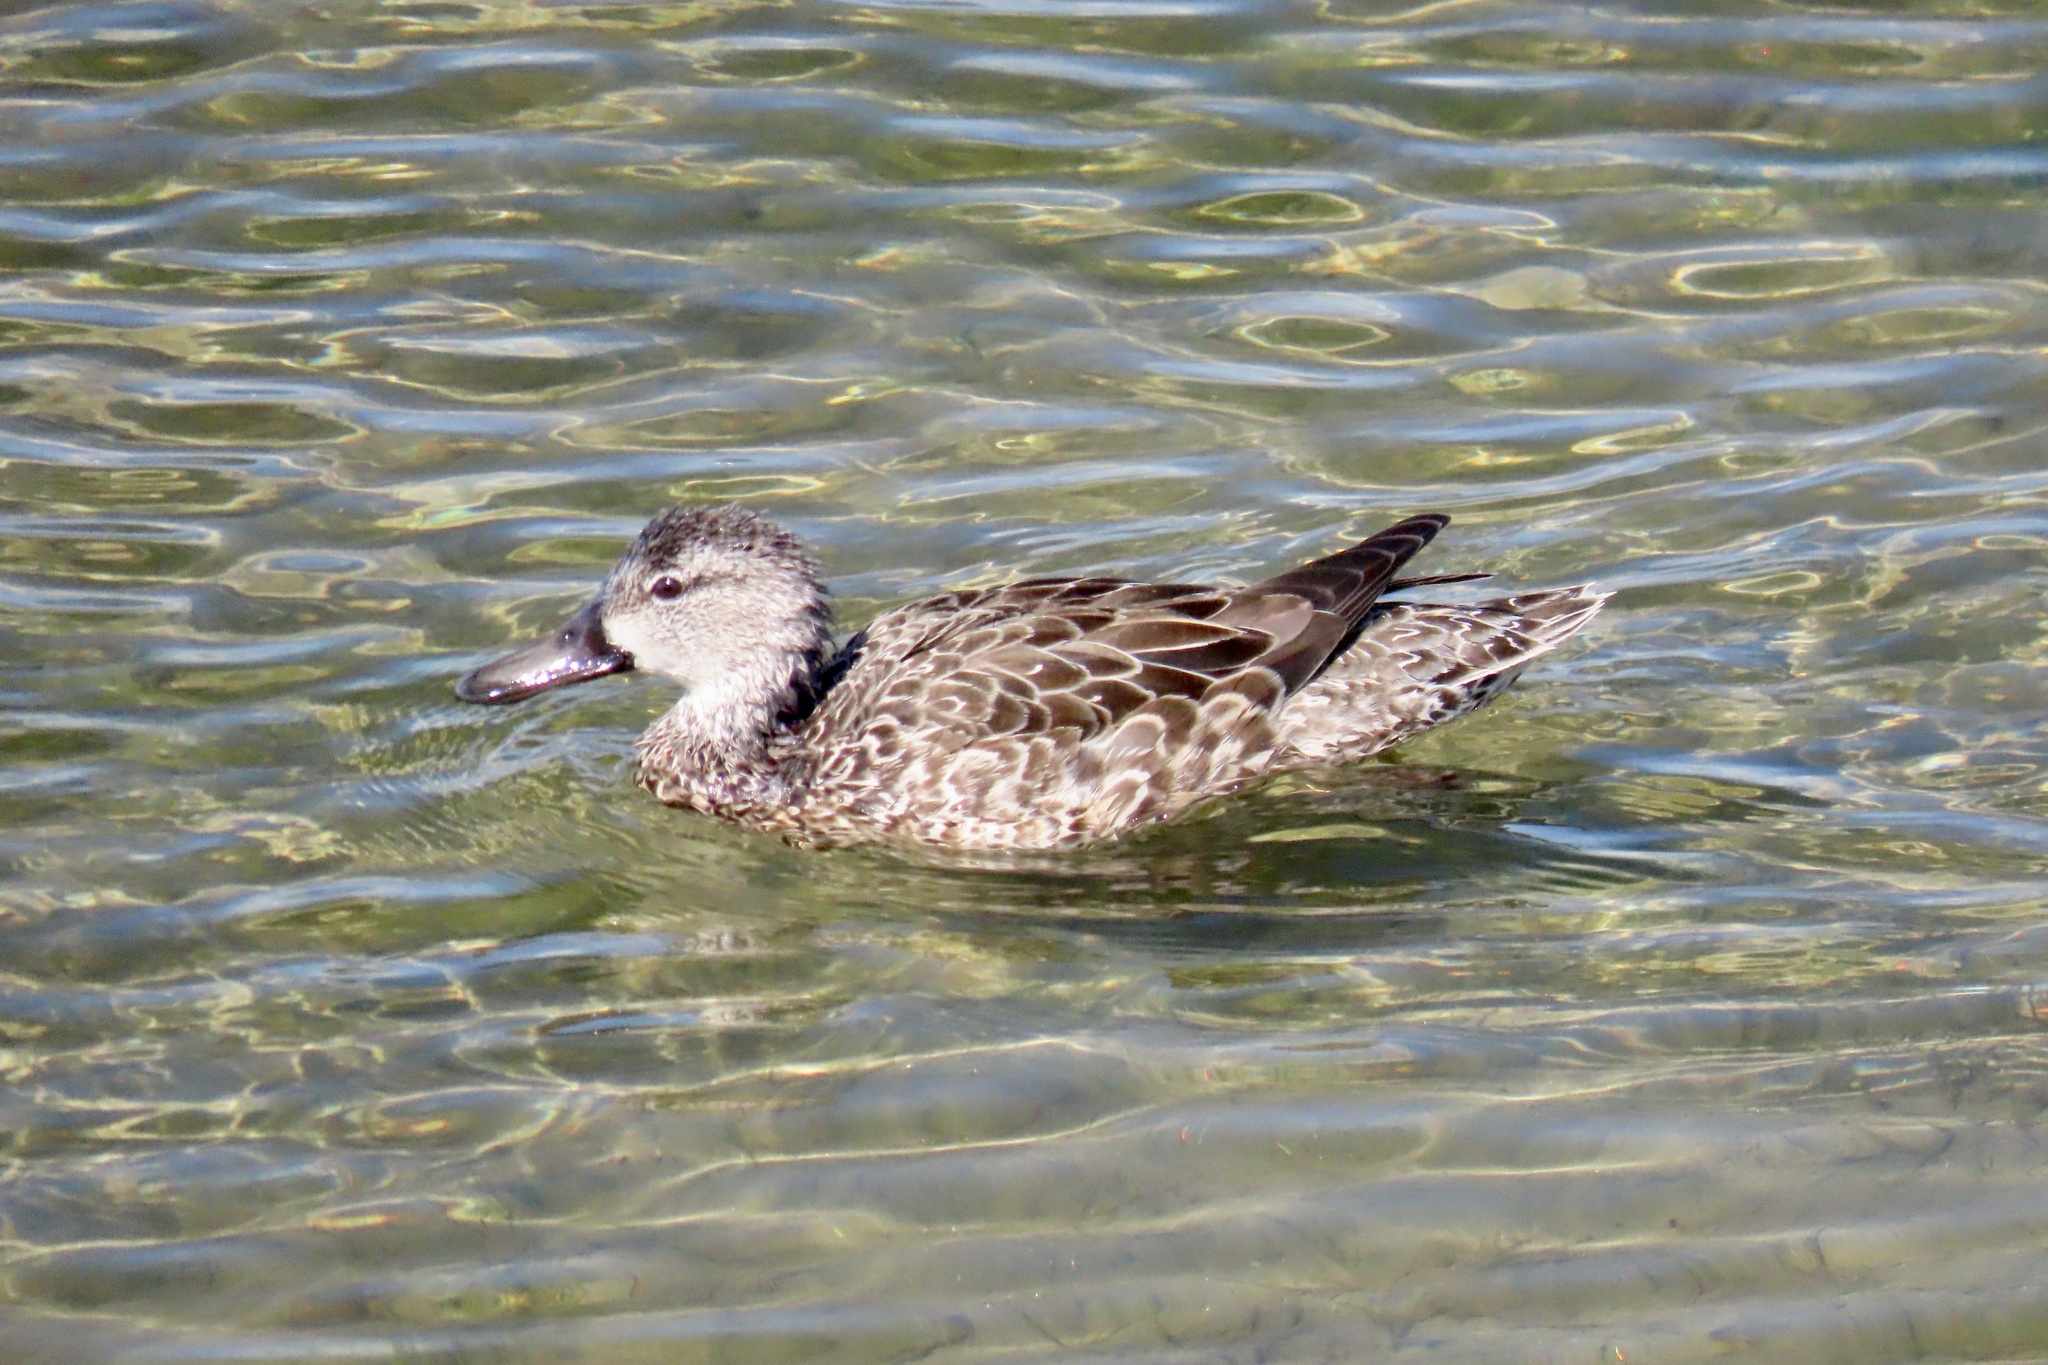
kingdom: Animalia
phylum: Chordata
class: Aves
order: Anseriformes
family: Anatidae
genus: Spatula
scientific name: Spatula discors
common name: Blue-winged teal
